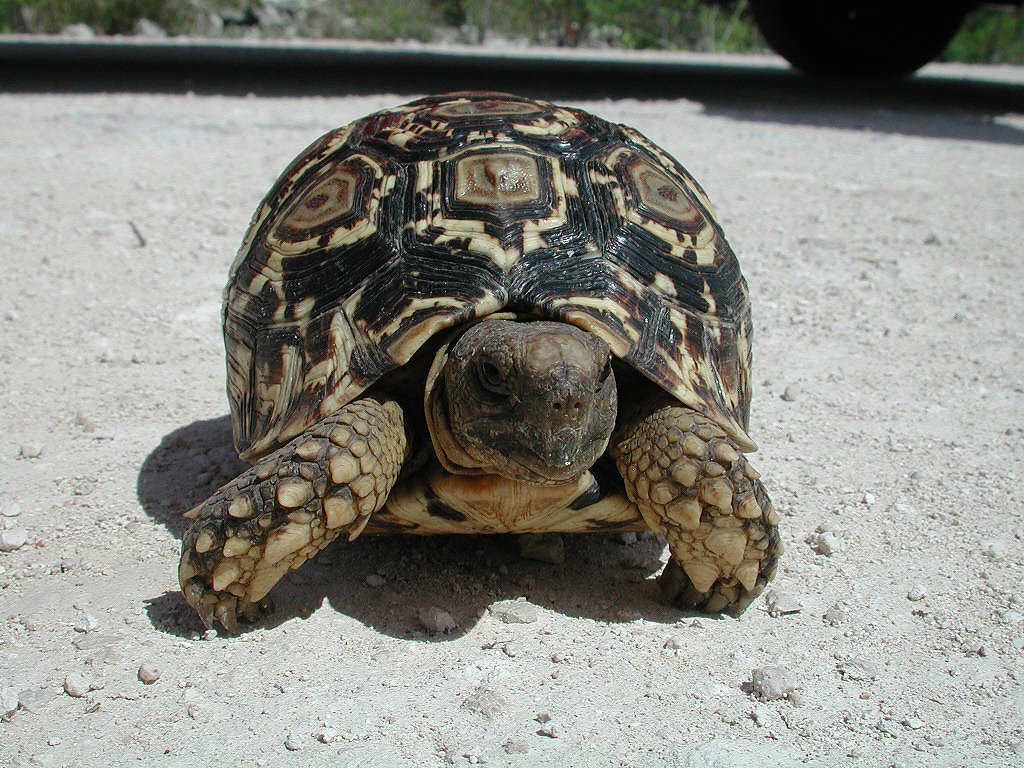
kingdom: Animalia
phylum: Chordata
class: Testudines
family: Testudinidae
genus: Stigmochelys
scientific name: Stigmochelys pardalis
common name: Leopard tortoise
